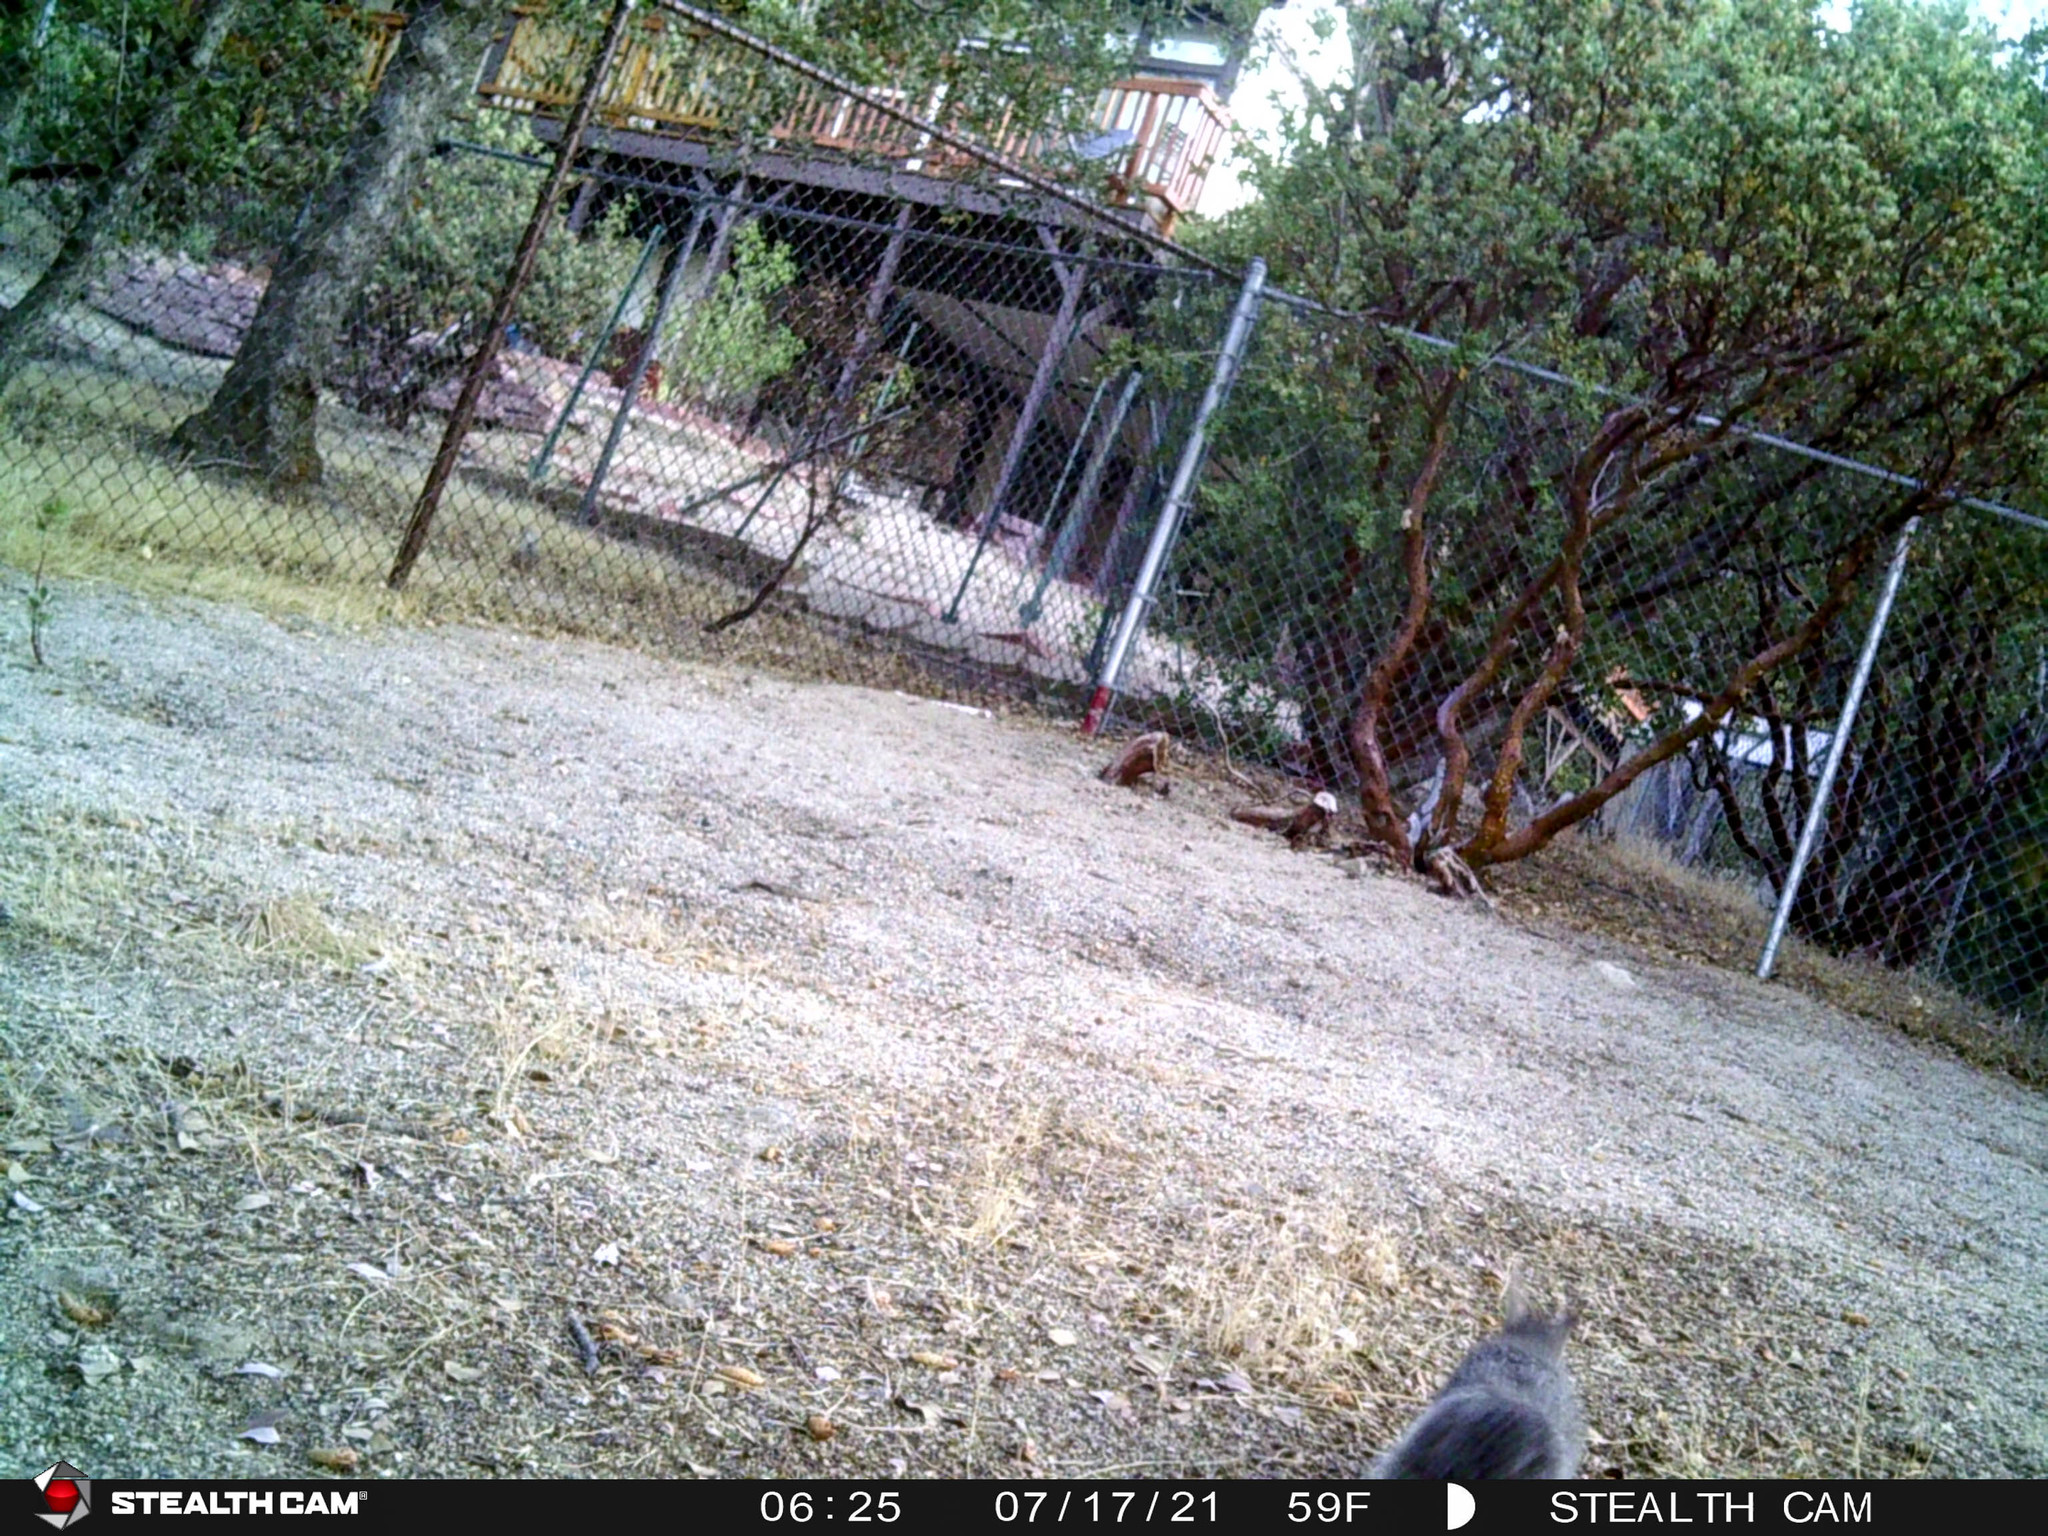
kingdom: Animalia
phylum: Chordata
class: Mammalia
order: Rodentia
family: Sciuridae
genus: Sciurus
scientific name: Sciurus griseus
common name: Western gray squirrel
